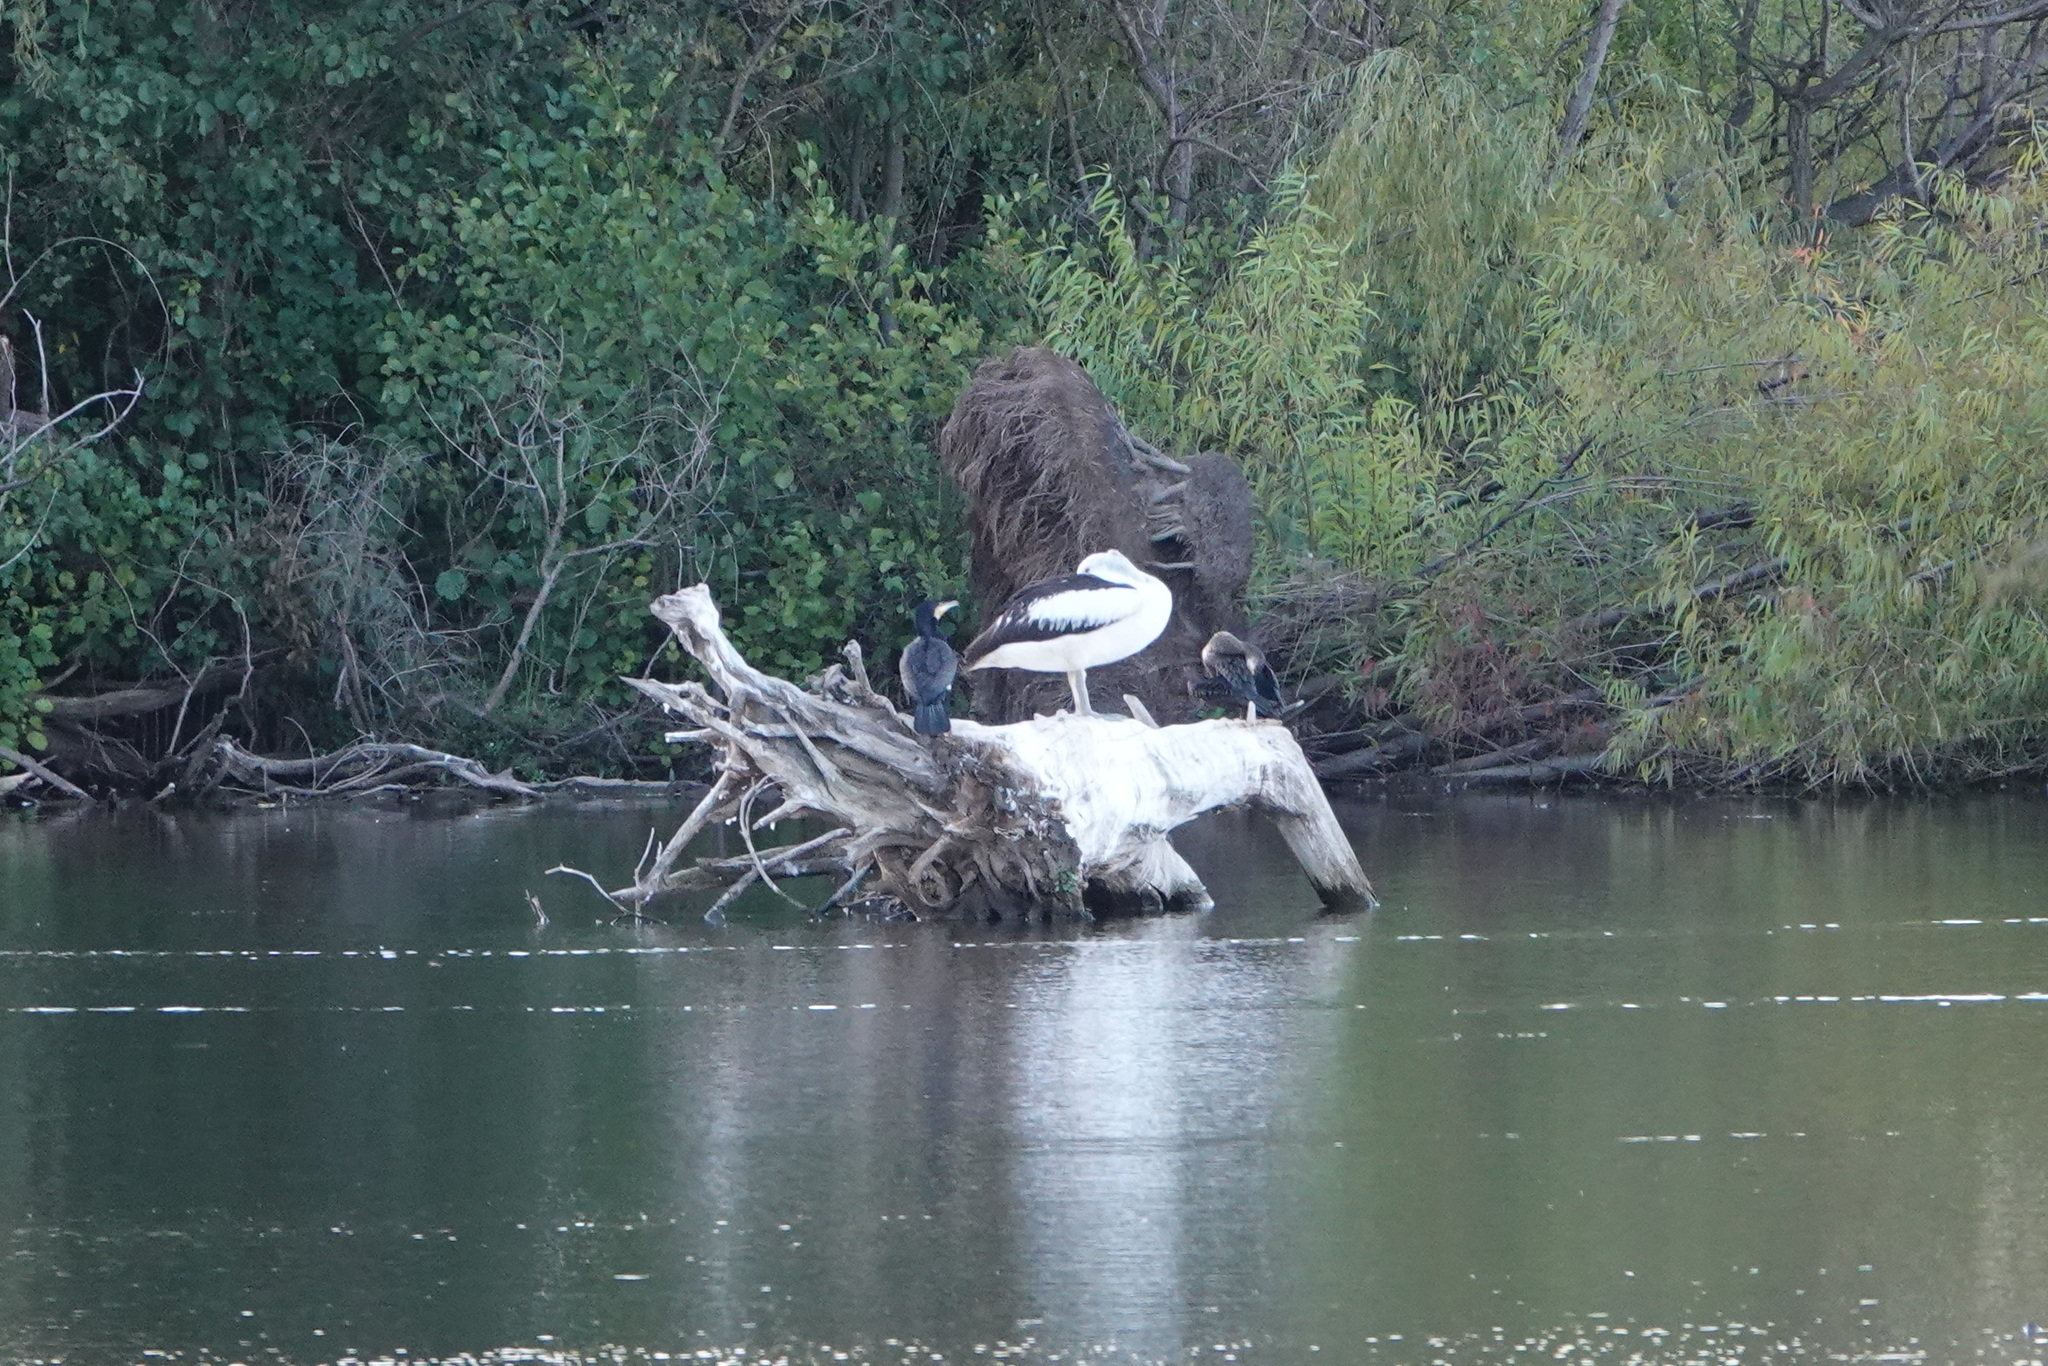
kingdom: Animalia
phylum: Chordata
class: Aves
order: Pelecaniformes
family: Pelecanidae
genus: Pelecanus
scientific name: Pelecanus conspicillatus
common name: Australian pelican
